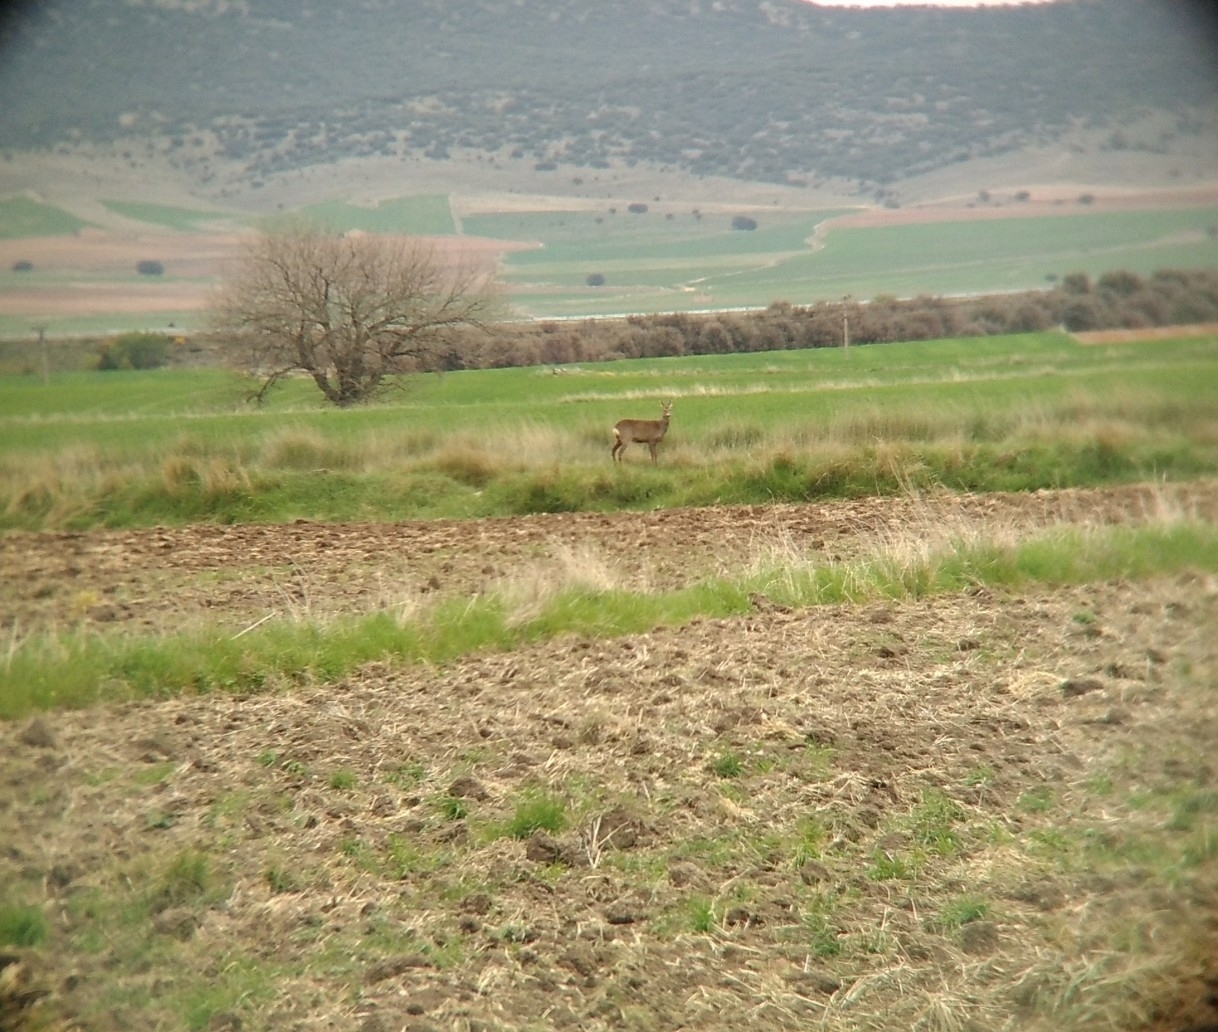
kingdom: Animalia
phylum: Chordata
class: Mammalia
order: Artiodactyla
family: Cervidae
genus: Capreolus
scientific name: Capreolus capreolus
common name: Western roe deer
